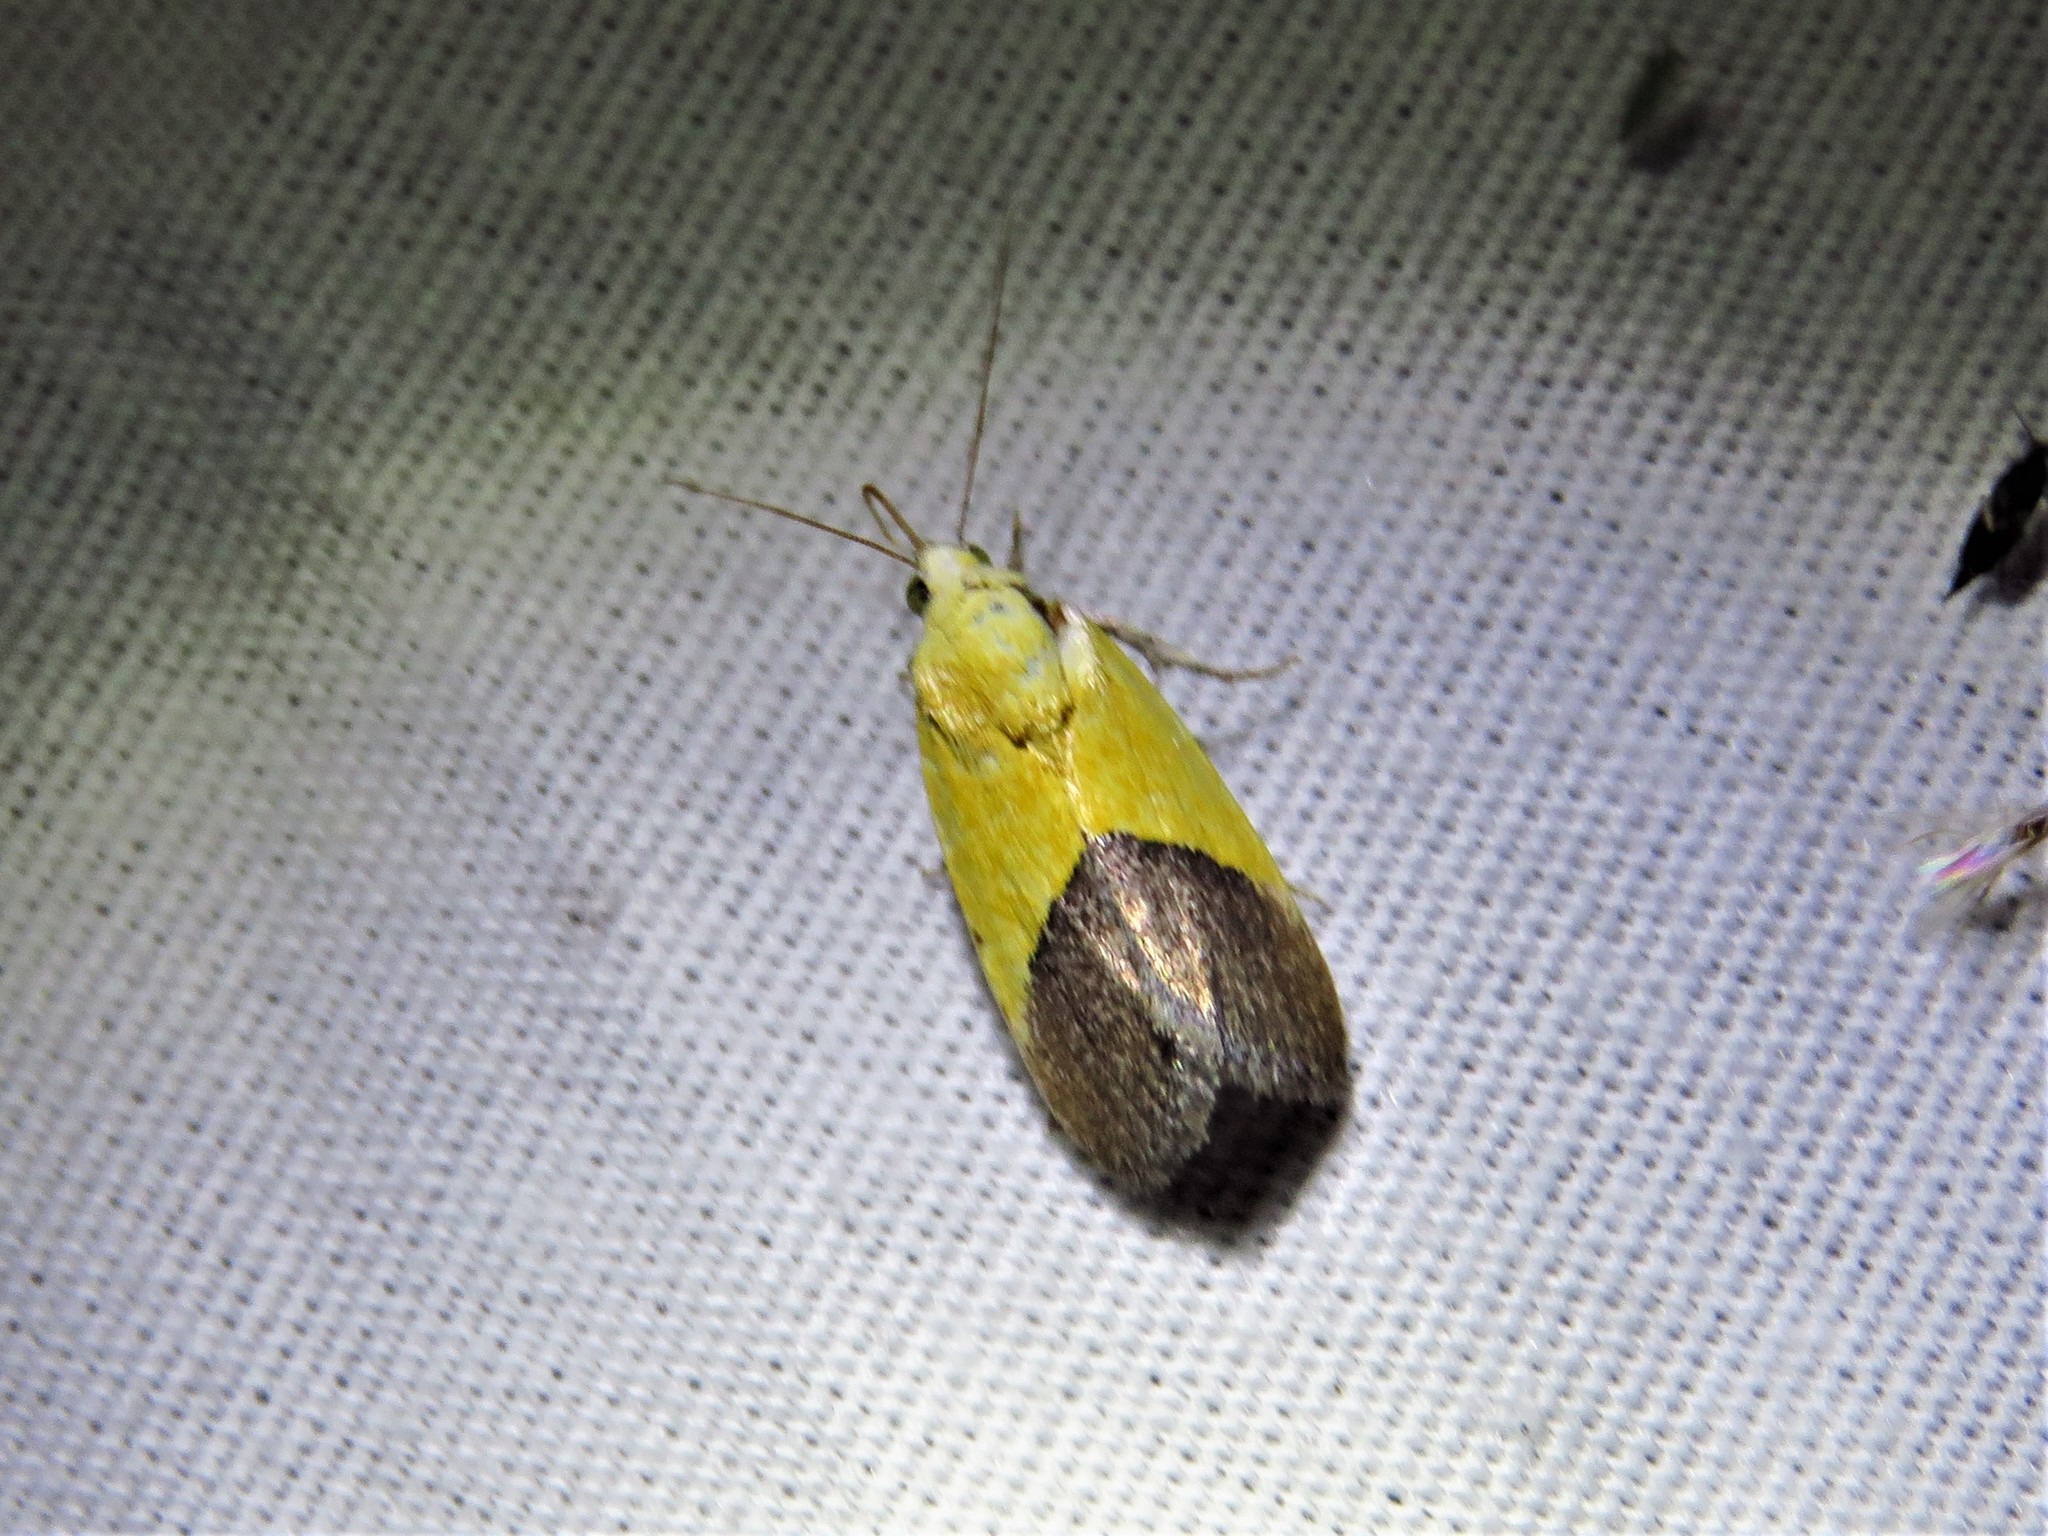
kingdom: Animalia
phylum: Arthropoda
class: Insecta
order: Lepidoptera
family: Noctuidae
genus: Acontia
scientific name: Acontia semiflava
